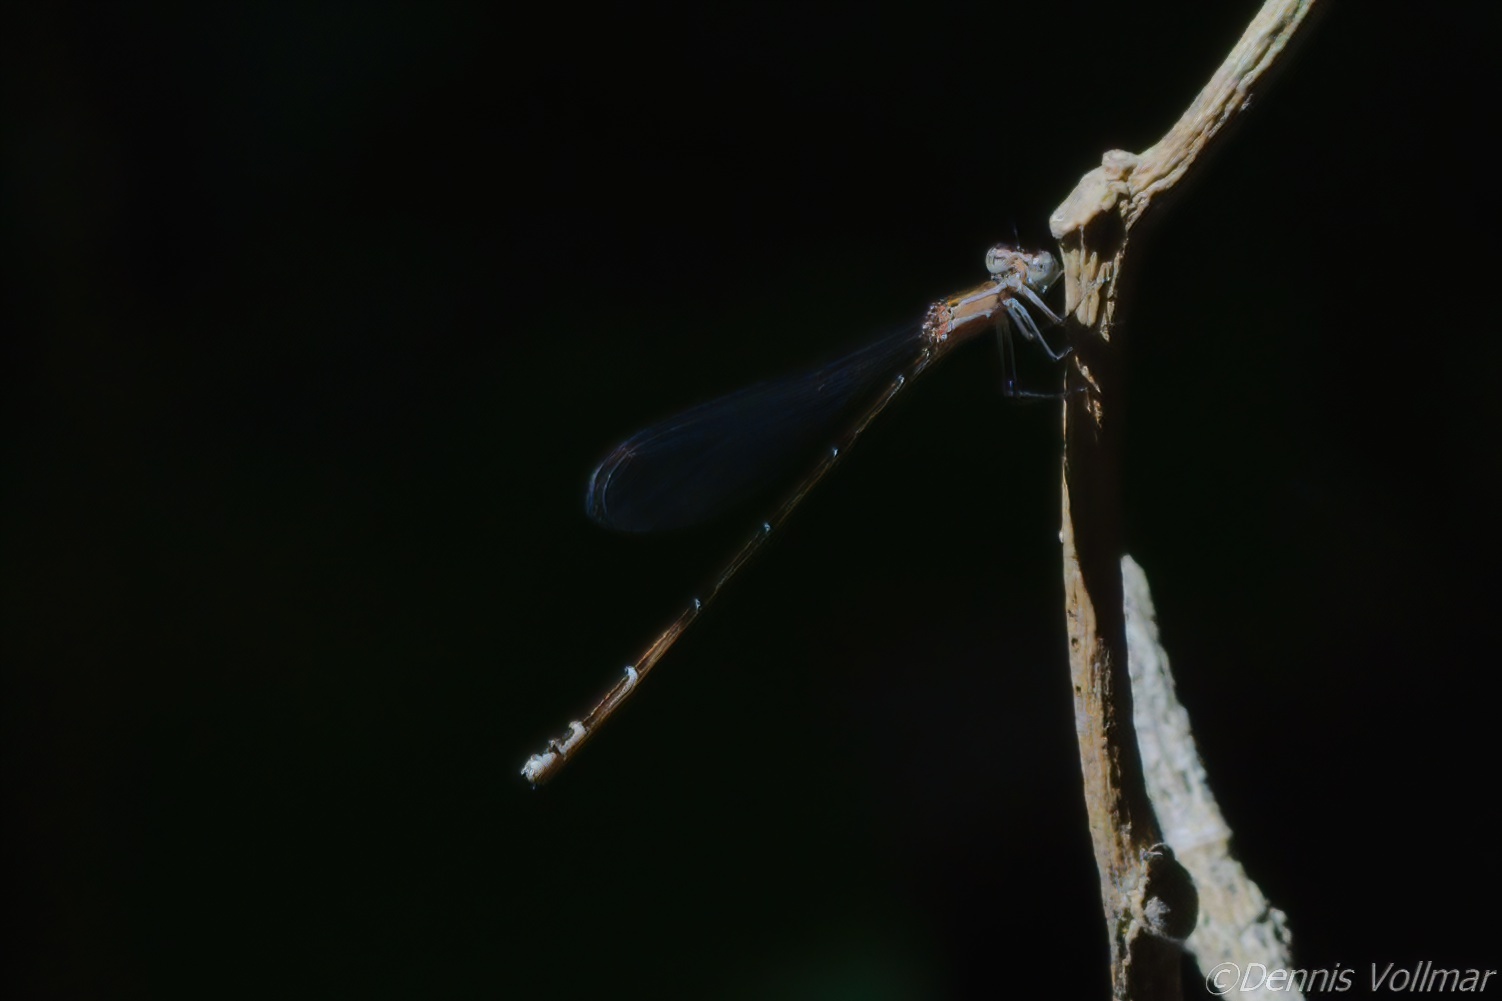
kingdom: Animalia
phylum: Arthropoda
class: Insecta
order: Odonata
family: Coenagrionidae
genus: Nehalennia
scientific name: Nehalennia pallidula
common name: Everglades sprite
